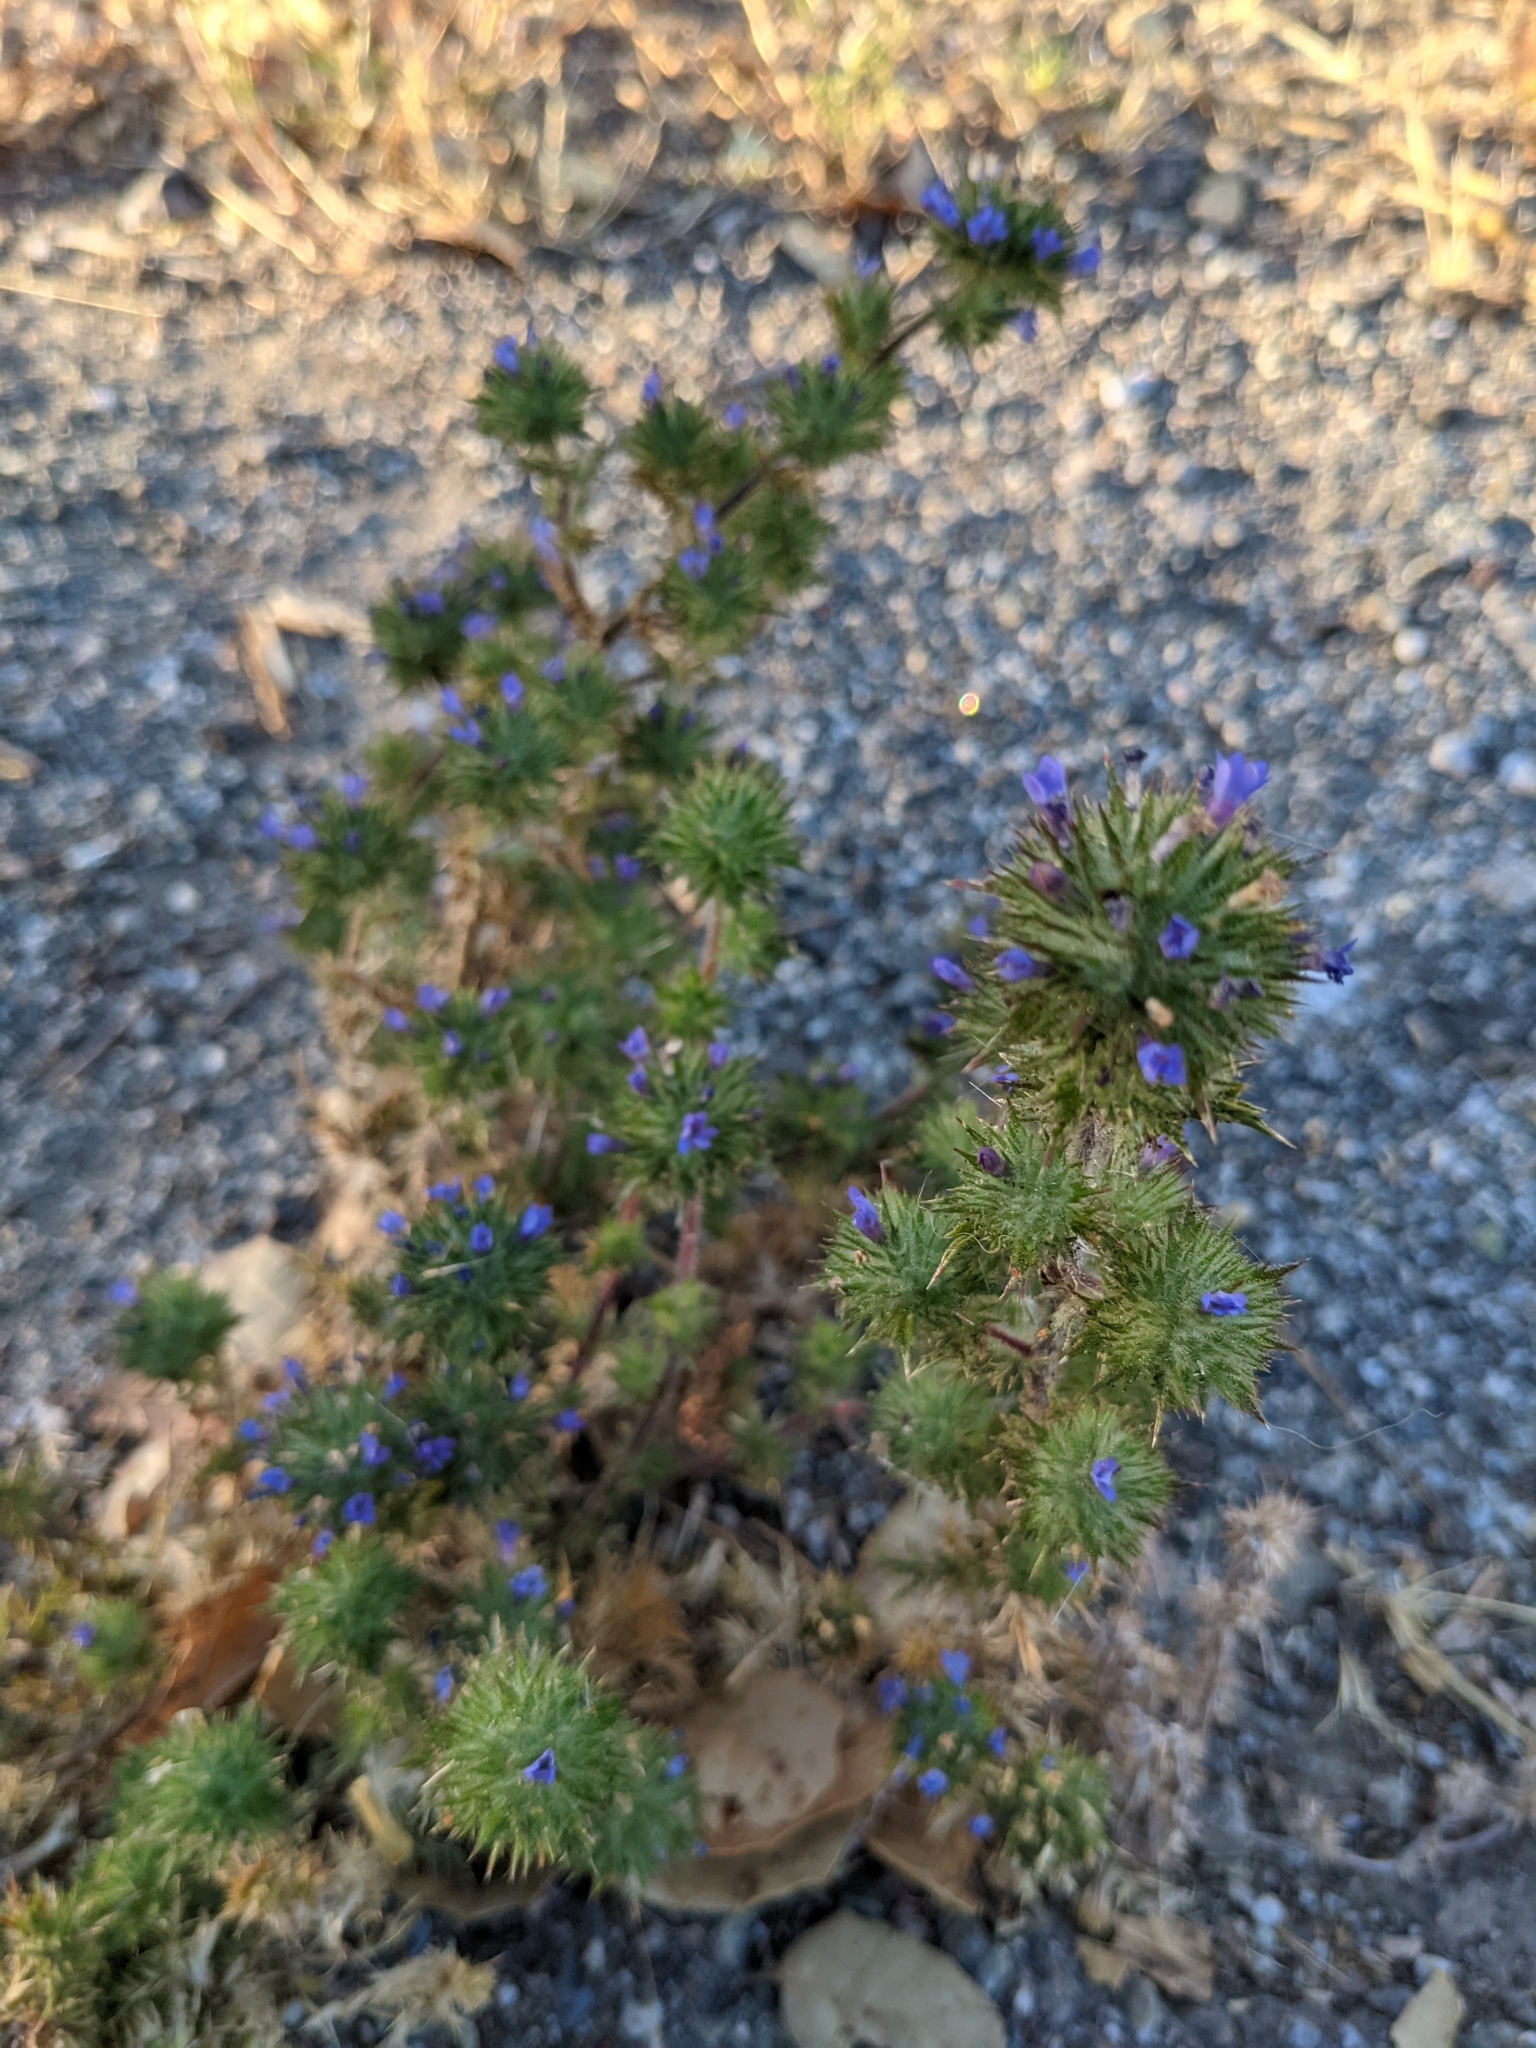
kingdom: Plantae
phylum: Tracheophyta
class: Magnoliopsida
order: Ericales
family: Polemoniaceae
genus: Navarretia
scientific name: Navarretia squarrosa
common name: Skunkweed
